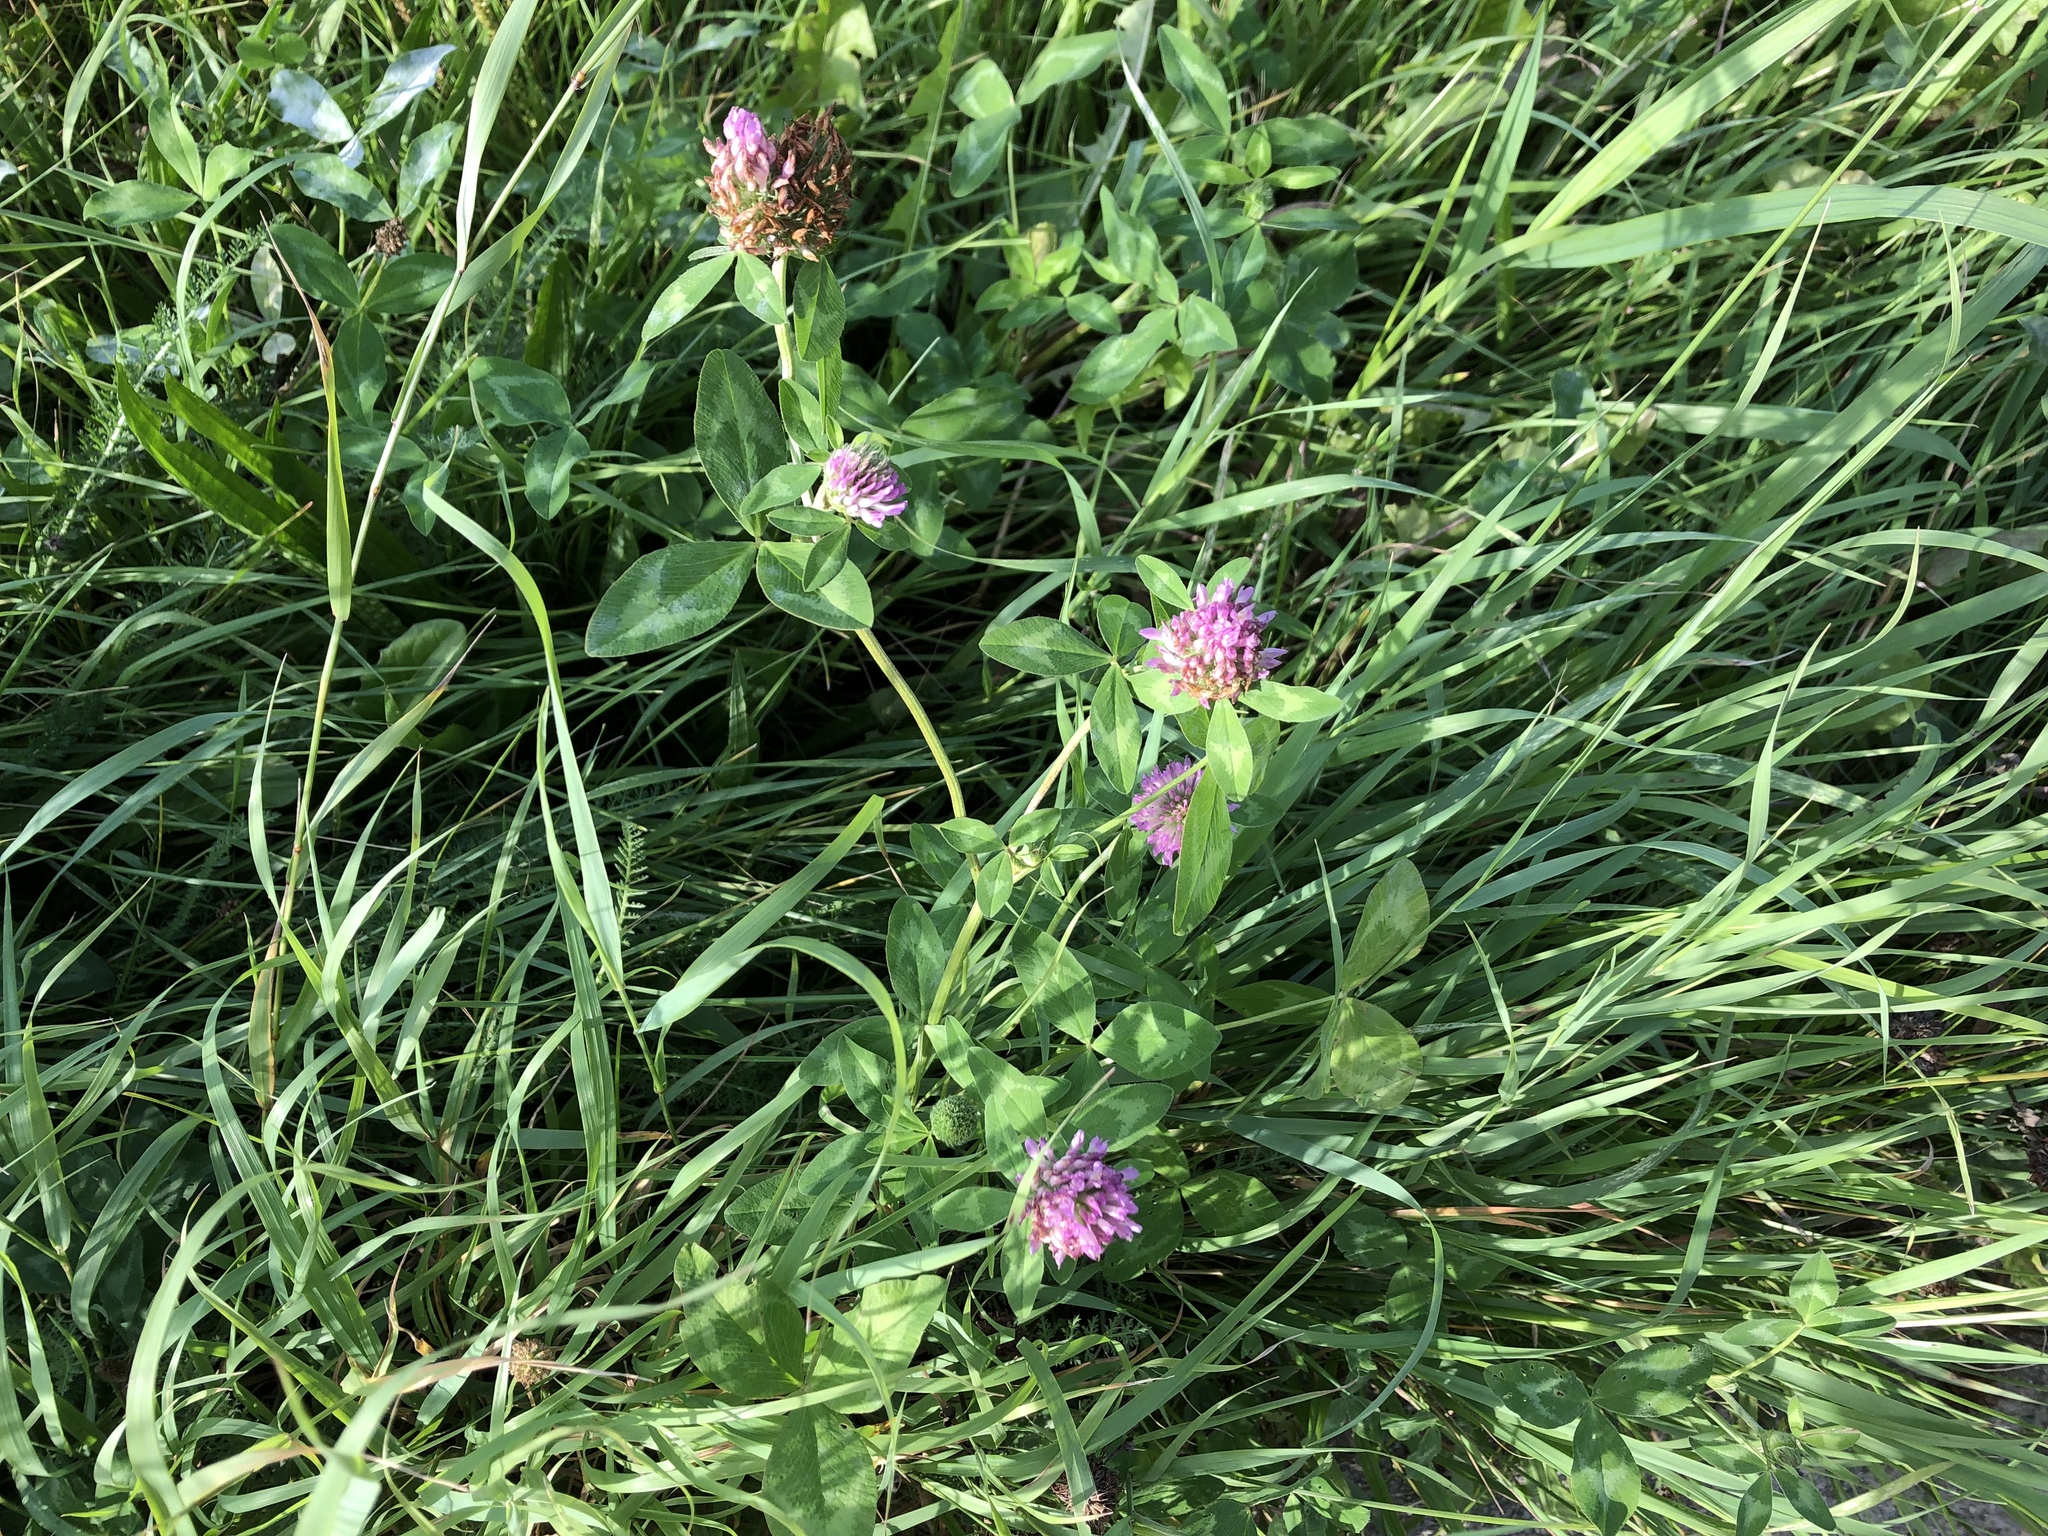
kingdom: Plantae
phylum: Tracheophyta
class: Magnoliopsida
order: Fabales
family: Fabaceae
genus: Trifolium
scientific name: Trifolium pratense
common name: Red clover
